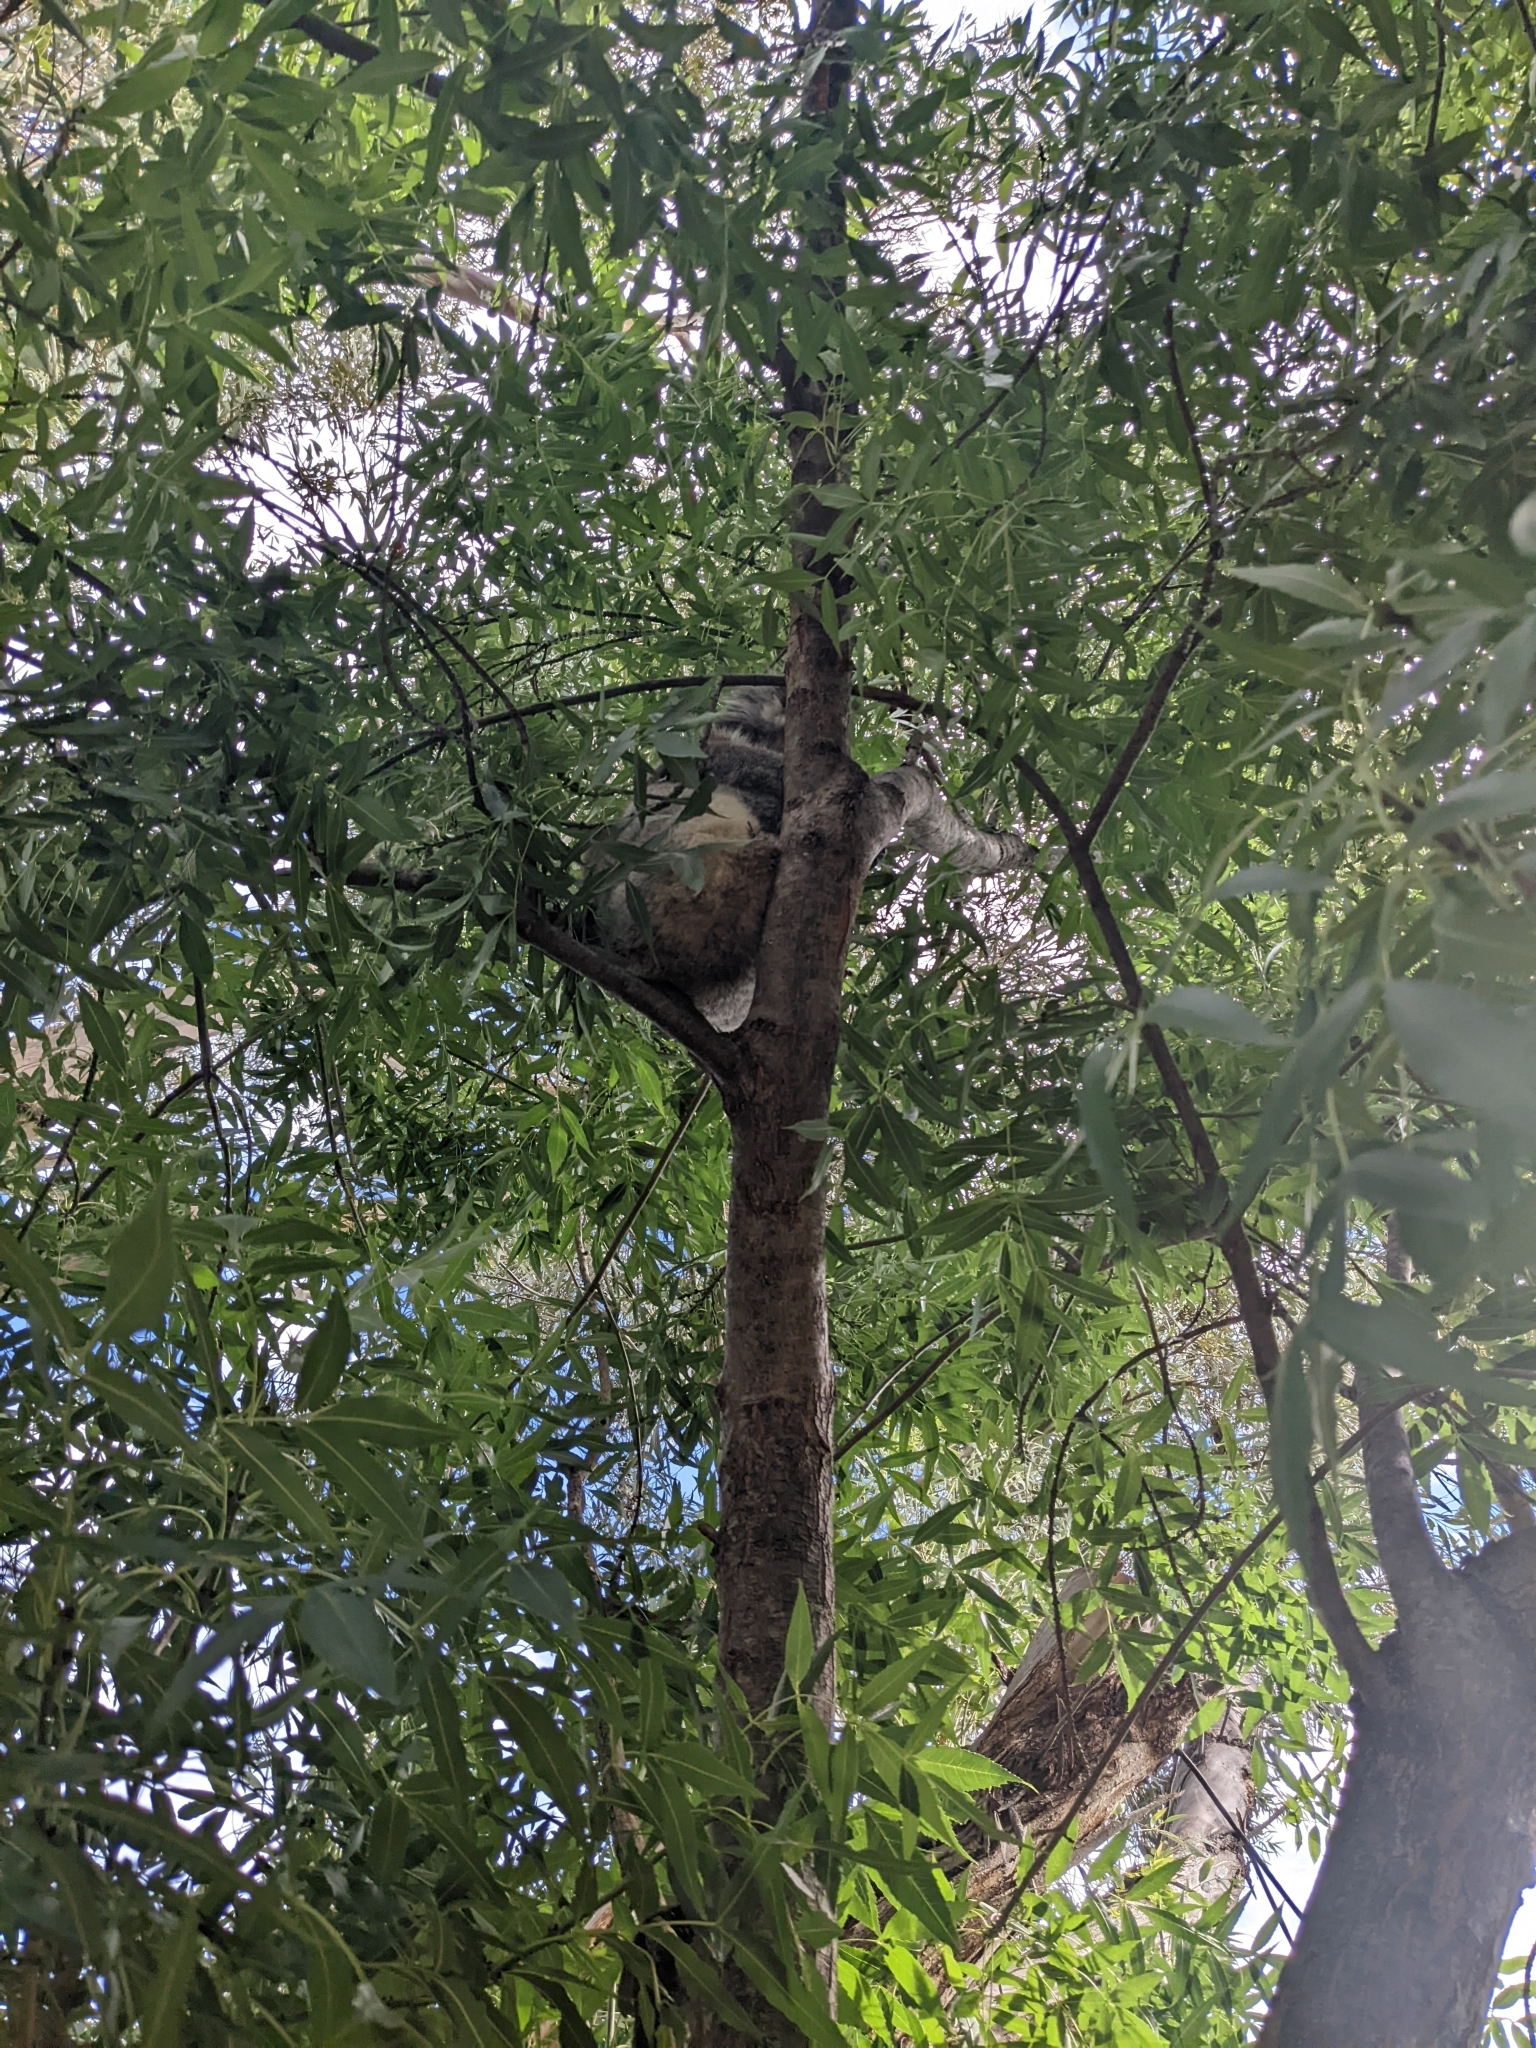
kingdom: Animalia
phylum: Chordata
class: Mammalia
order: Diprotodontia
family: Phascolarctidae
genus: Phascolarctos
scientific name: Phascolarctos cinereus
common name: Koala
